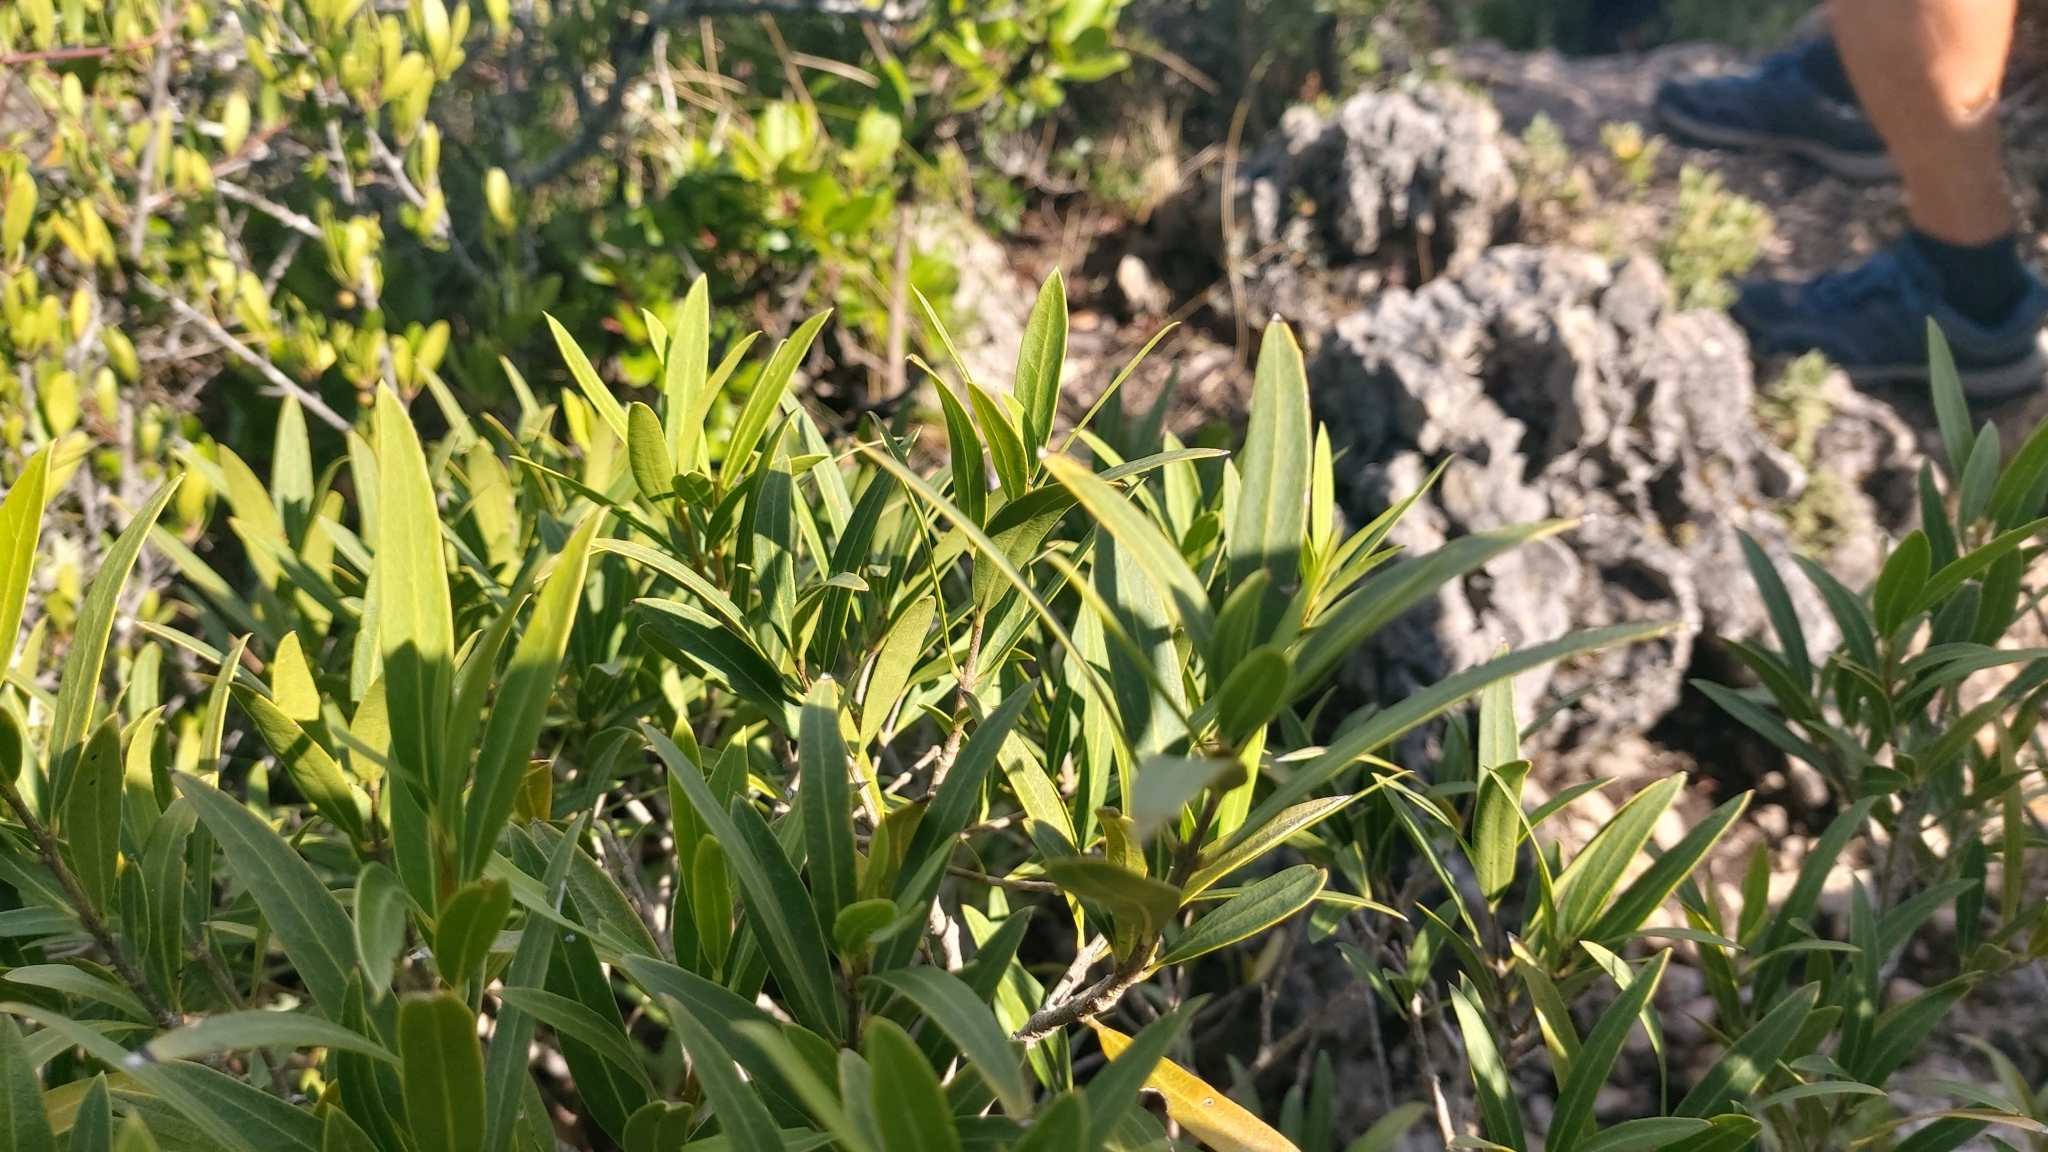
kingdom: Plantae
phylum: Tracheophyta
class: Magnoliopsida
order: Lamiales
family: Oleaceae
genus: Phillyrea
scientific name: Phillyrea angustifolia
